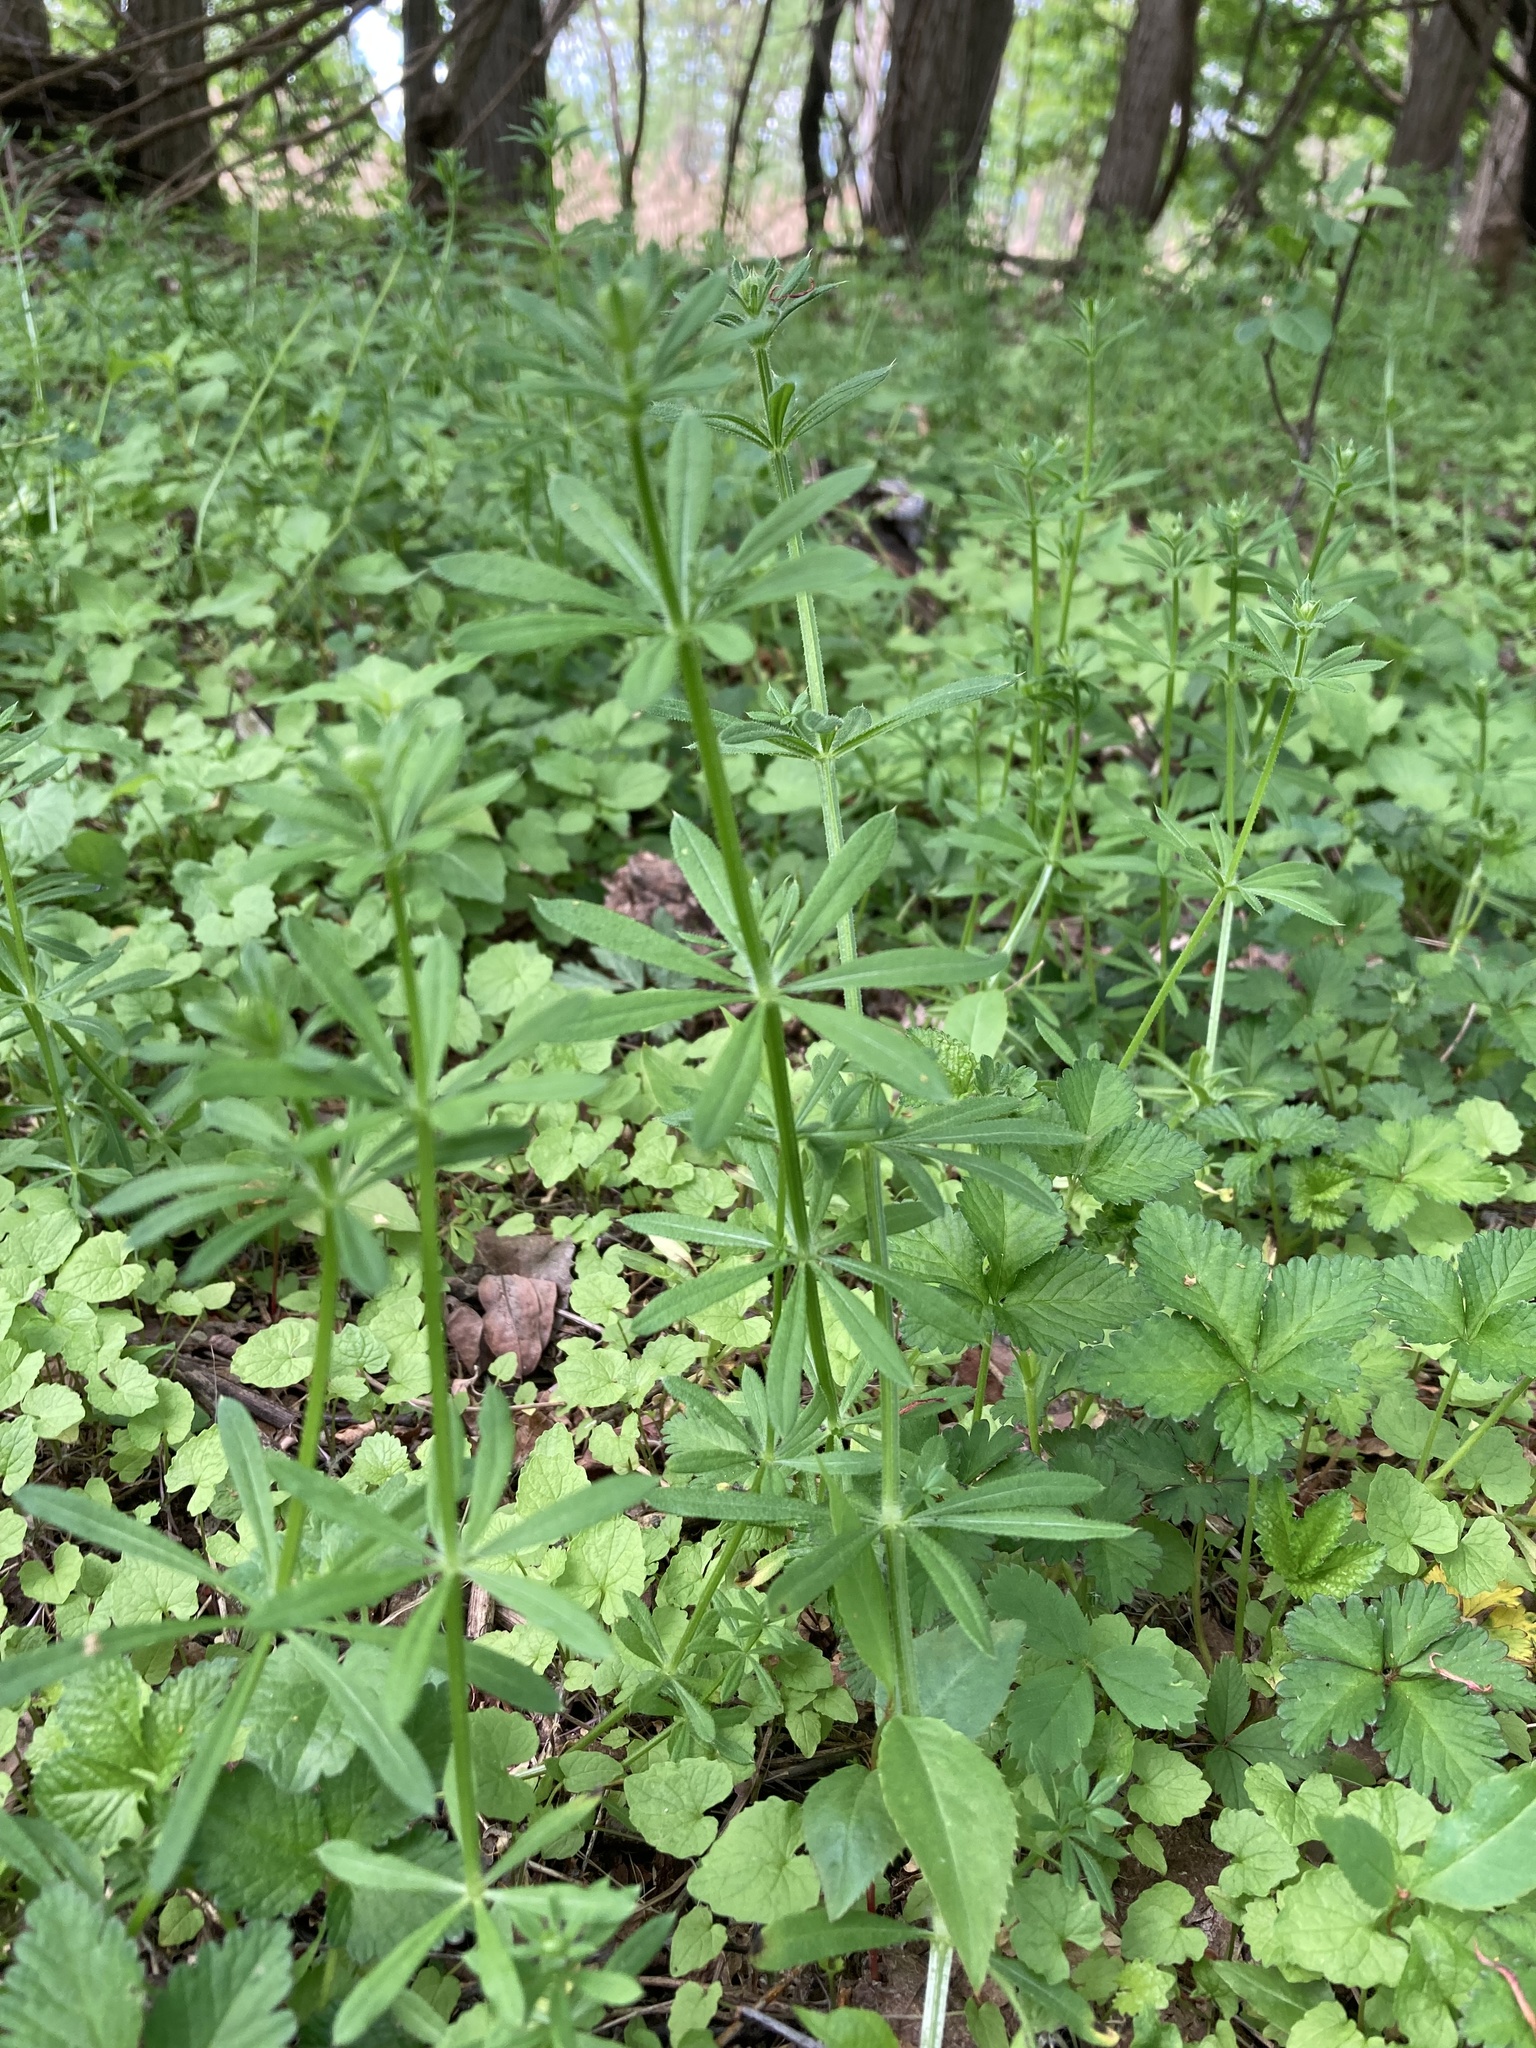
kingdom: Plantae
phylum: Tracheophyta
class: Magnoliopsida
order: Gentianales
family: Rubiaceae
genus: Galium
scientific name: Galium aparine
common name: Cleavers
